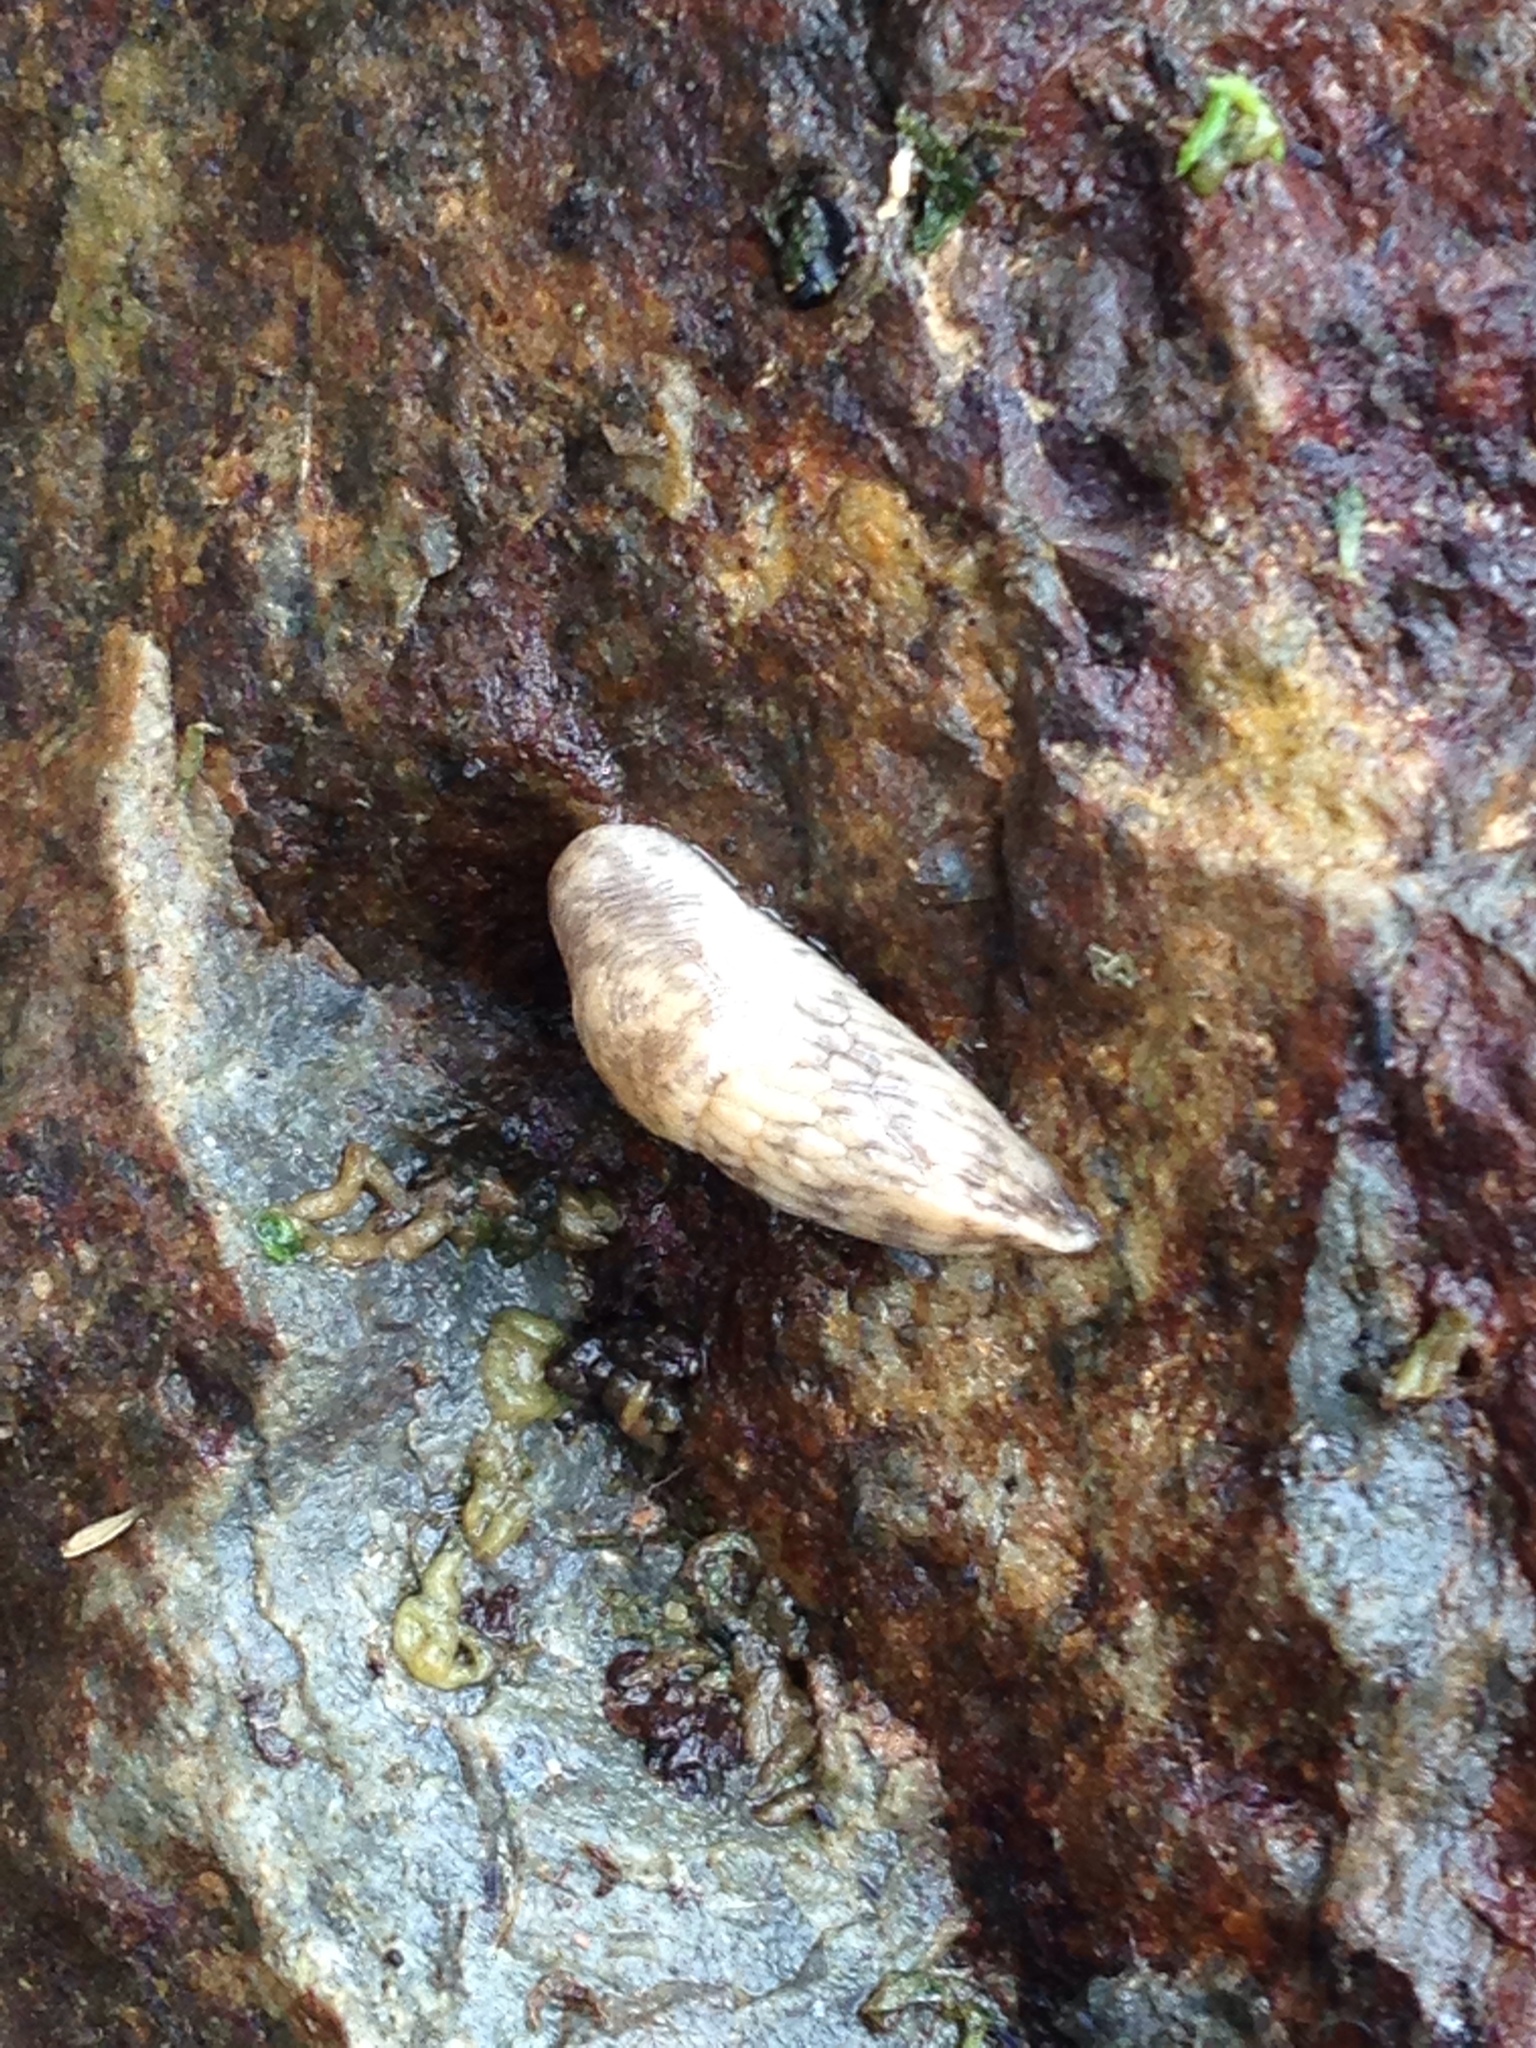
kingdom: Animalia
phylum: Mollusca
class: Gastropoda
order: Stylommatophora
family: Agriolimacidae
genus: Deroceras
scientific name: Deroceras reticulatum
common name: Gray field slug
